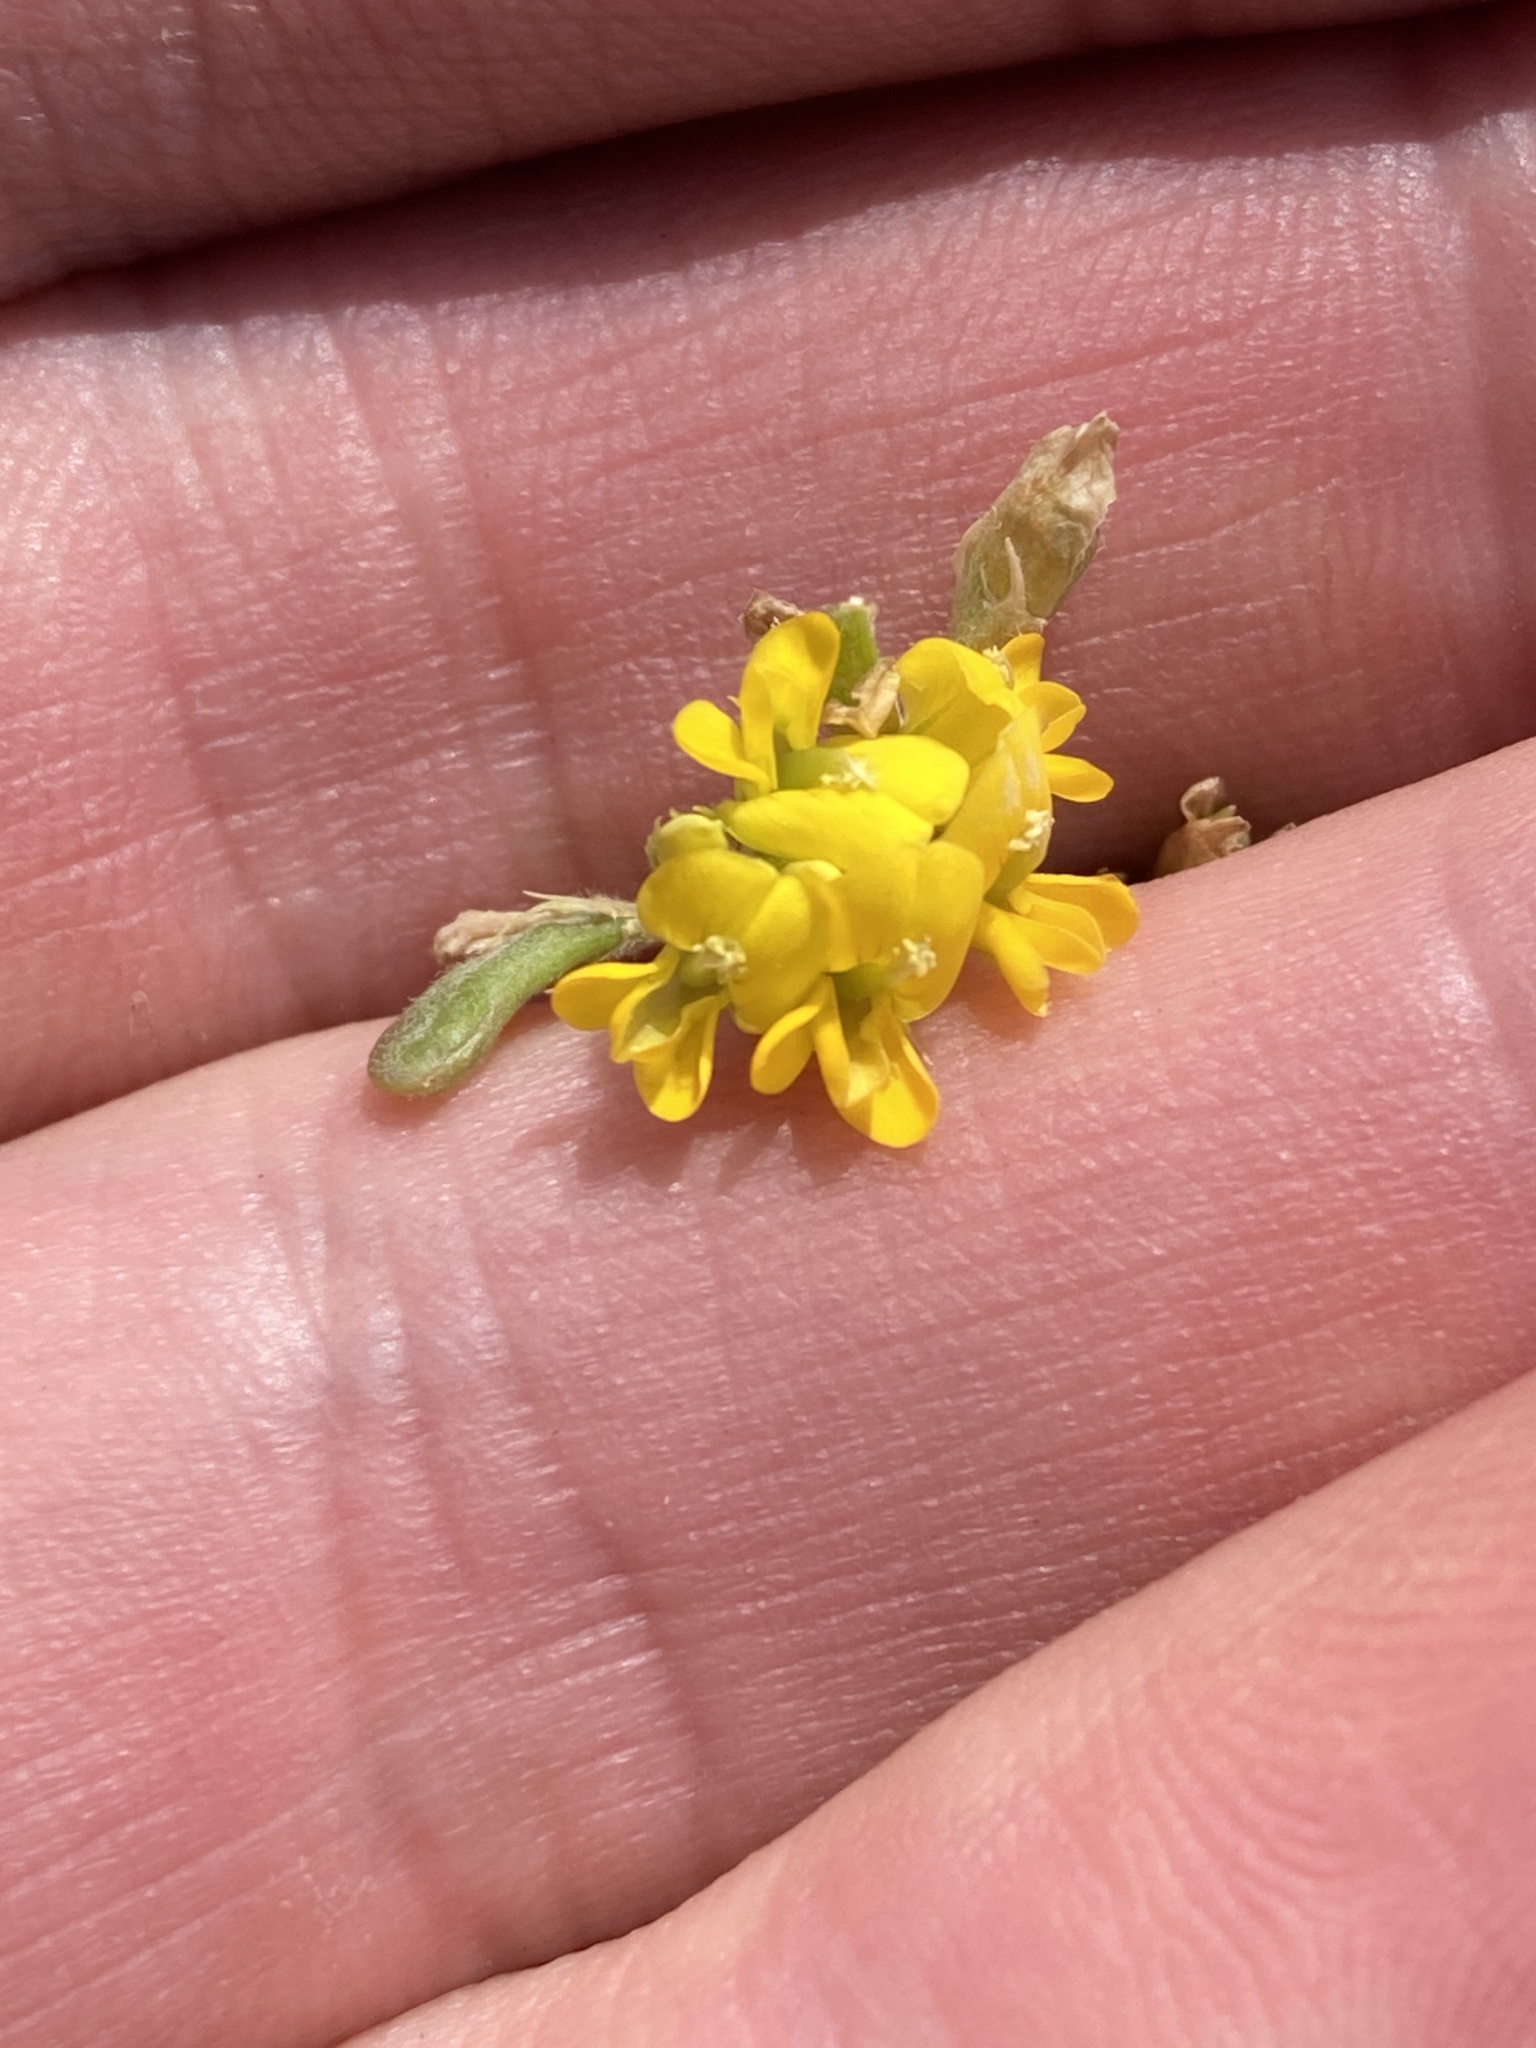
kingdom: Plantae
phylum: Tracheophyta
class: Magnoliopsida
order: Fabales
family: Fabaceae
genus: Medicago
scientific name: Medicago falcata
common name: Sickle medick
